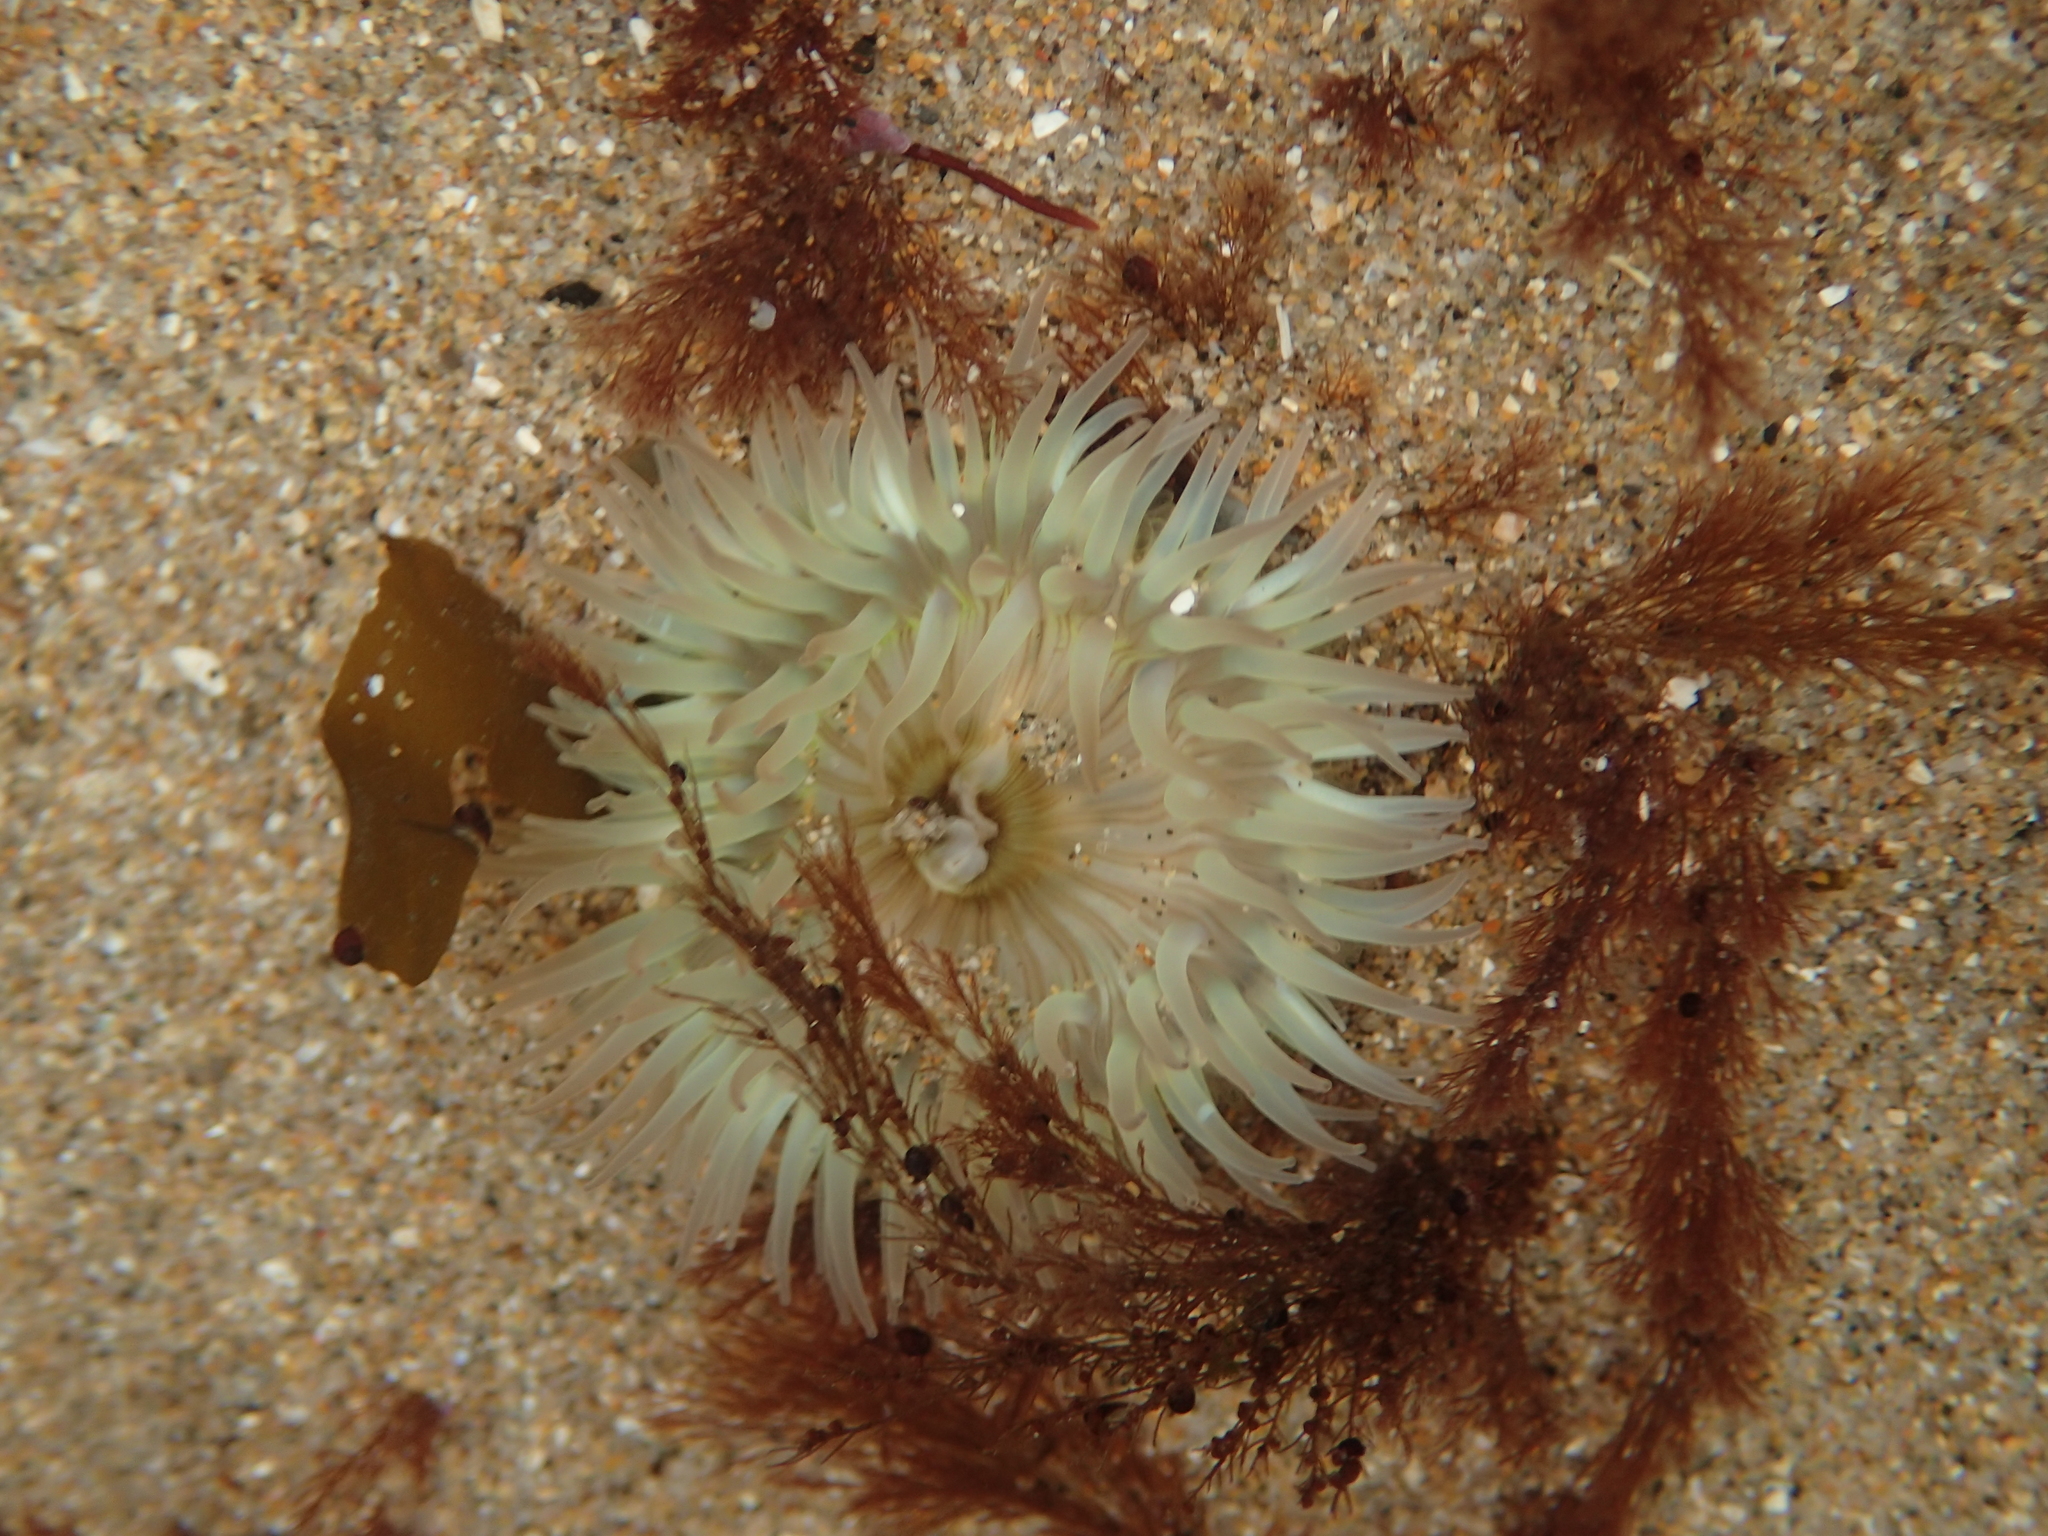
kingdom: Animalia
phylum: Cnidaria
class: Anthozoa
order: Actiniaria
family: Actiniidae
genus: Anthopleura
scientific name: Anthopleura sola
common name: Sun anemone
